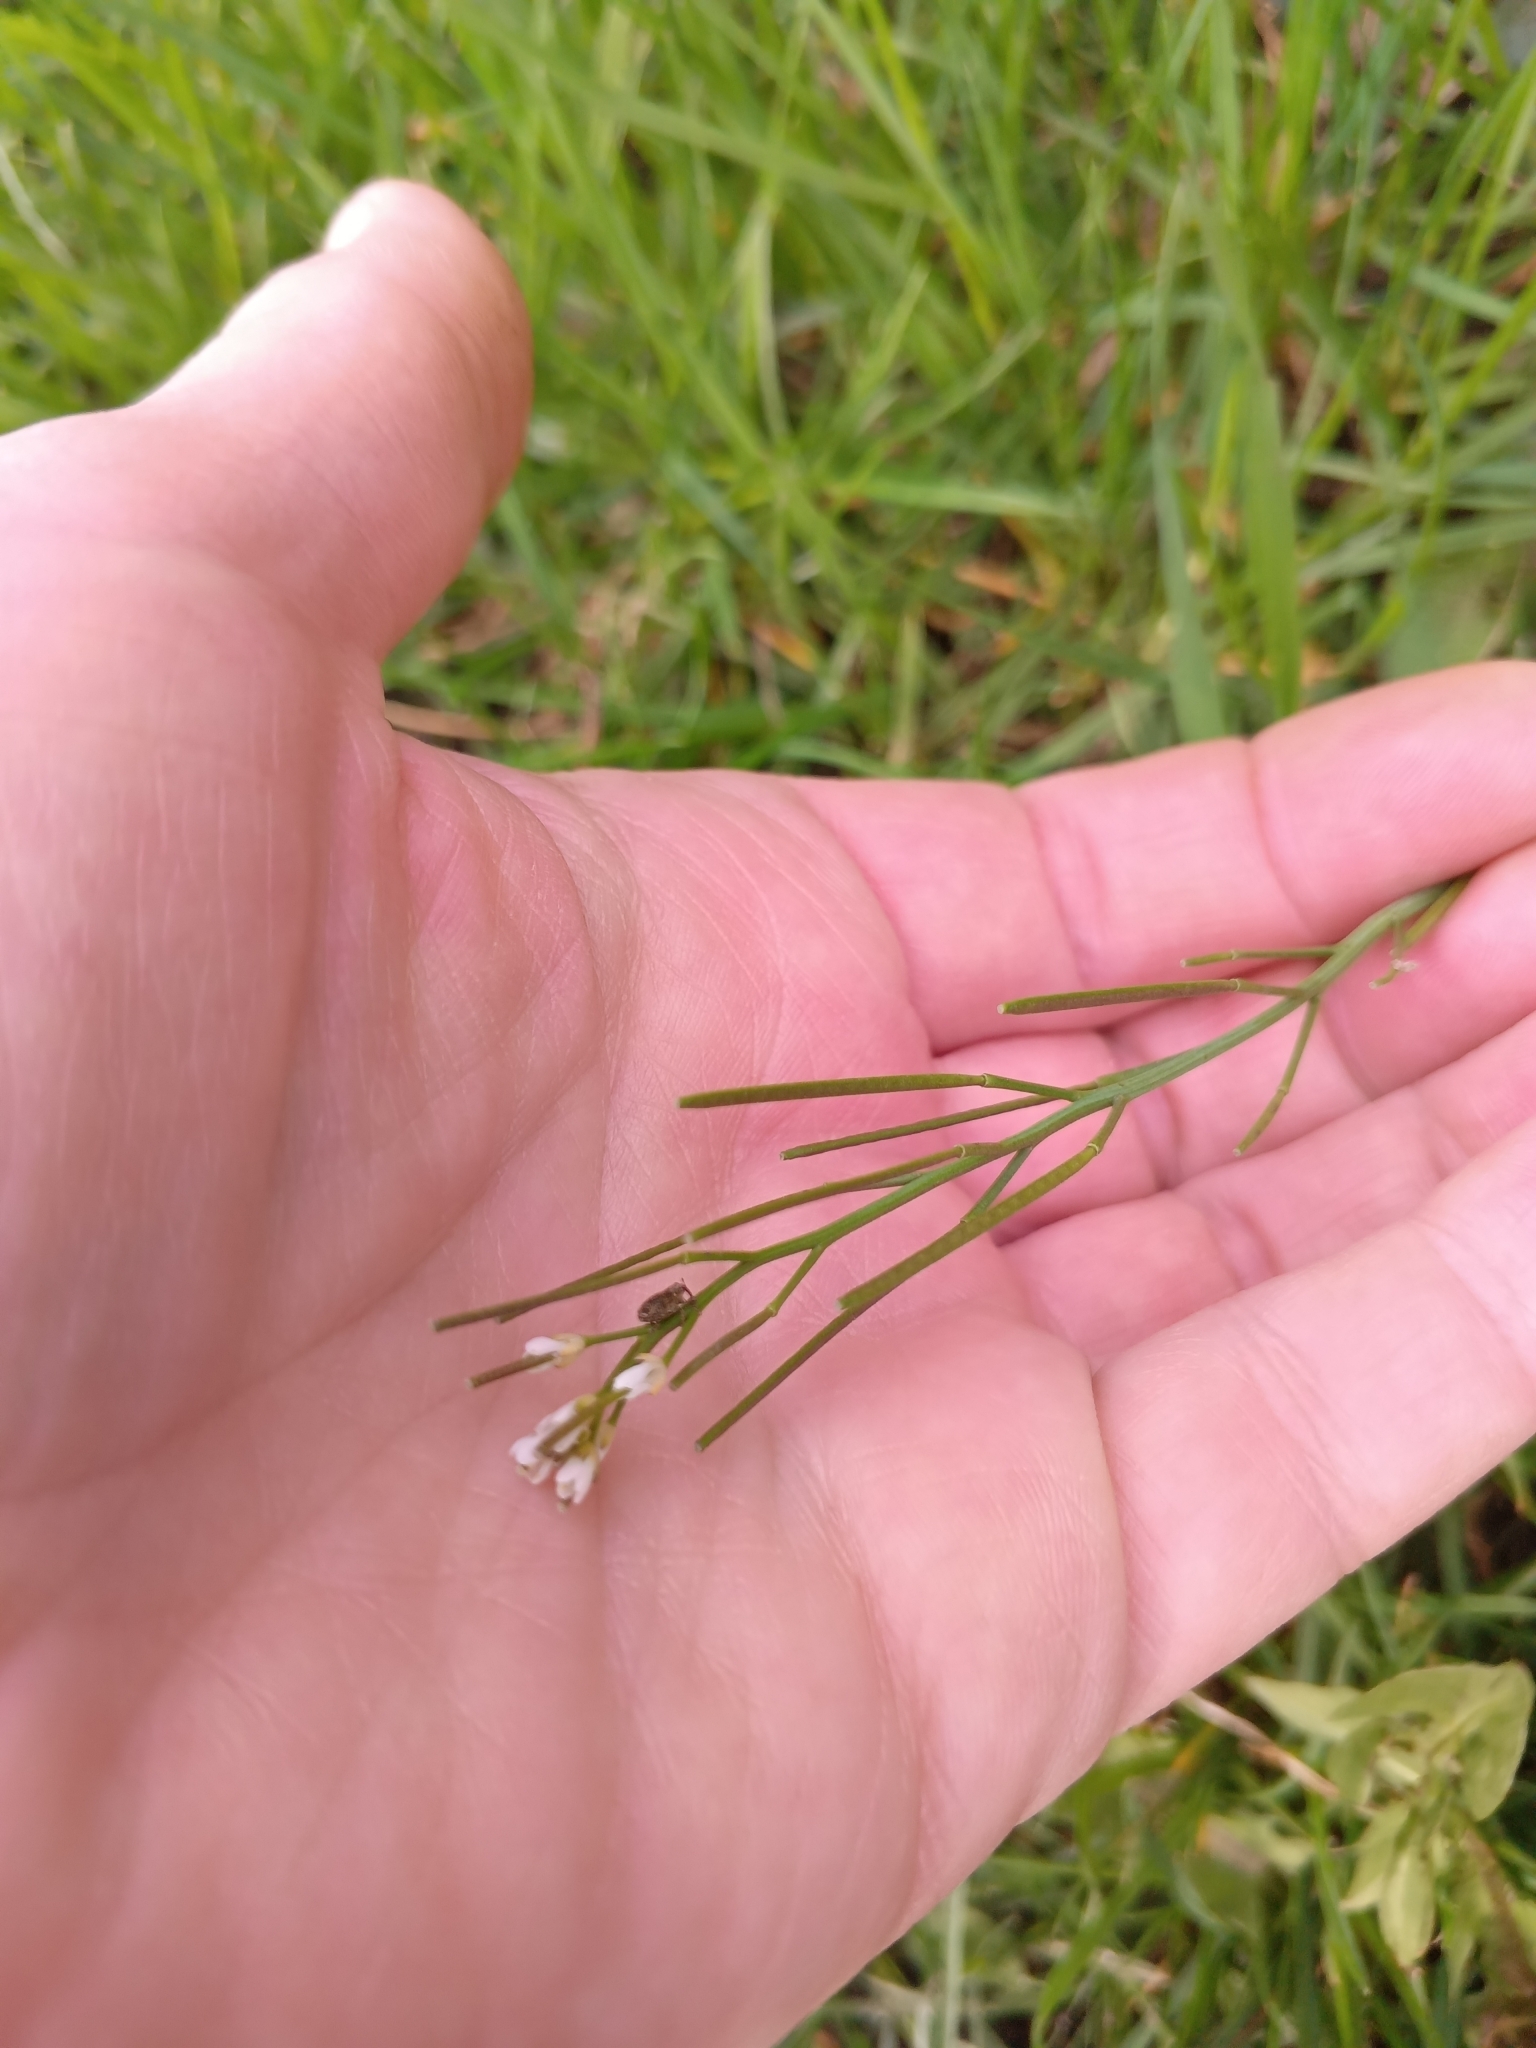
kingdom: Plantae
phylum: Tracheophyta
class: Magnoliopsida
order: Brassicales
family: Brassicaceae
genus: Cardamine
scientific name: Cardamine hirsuta
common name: Hairy bittercress
